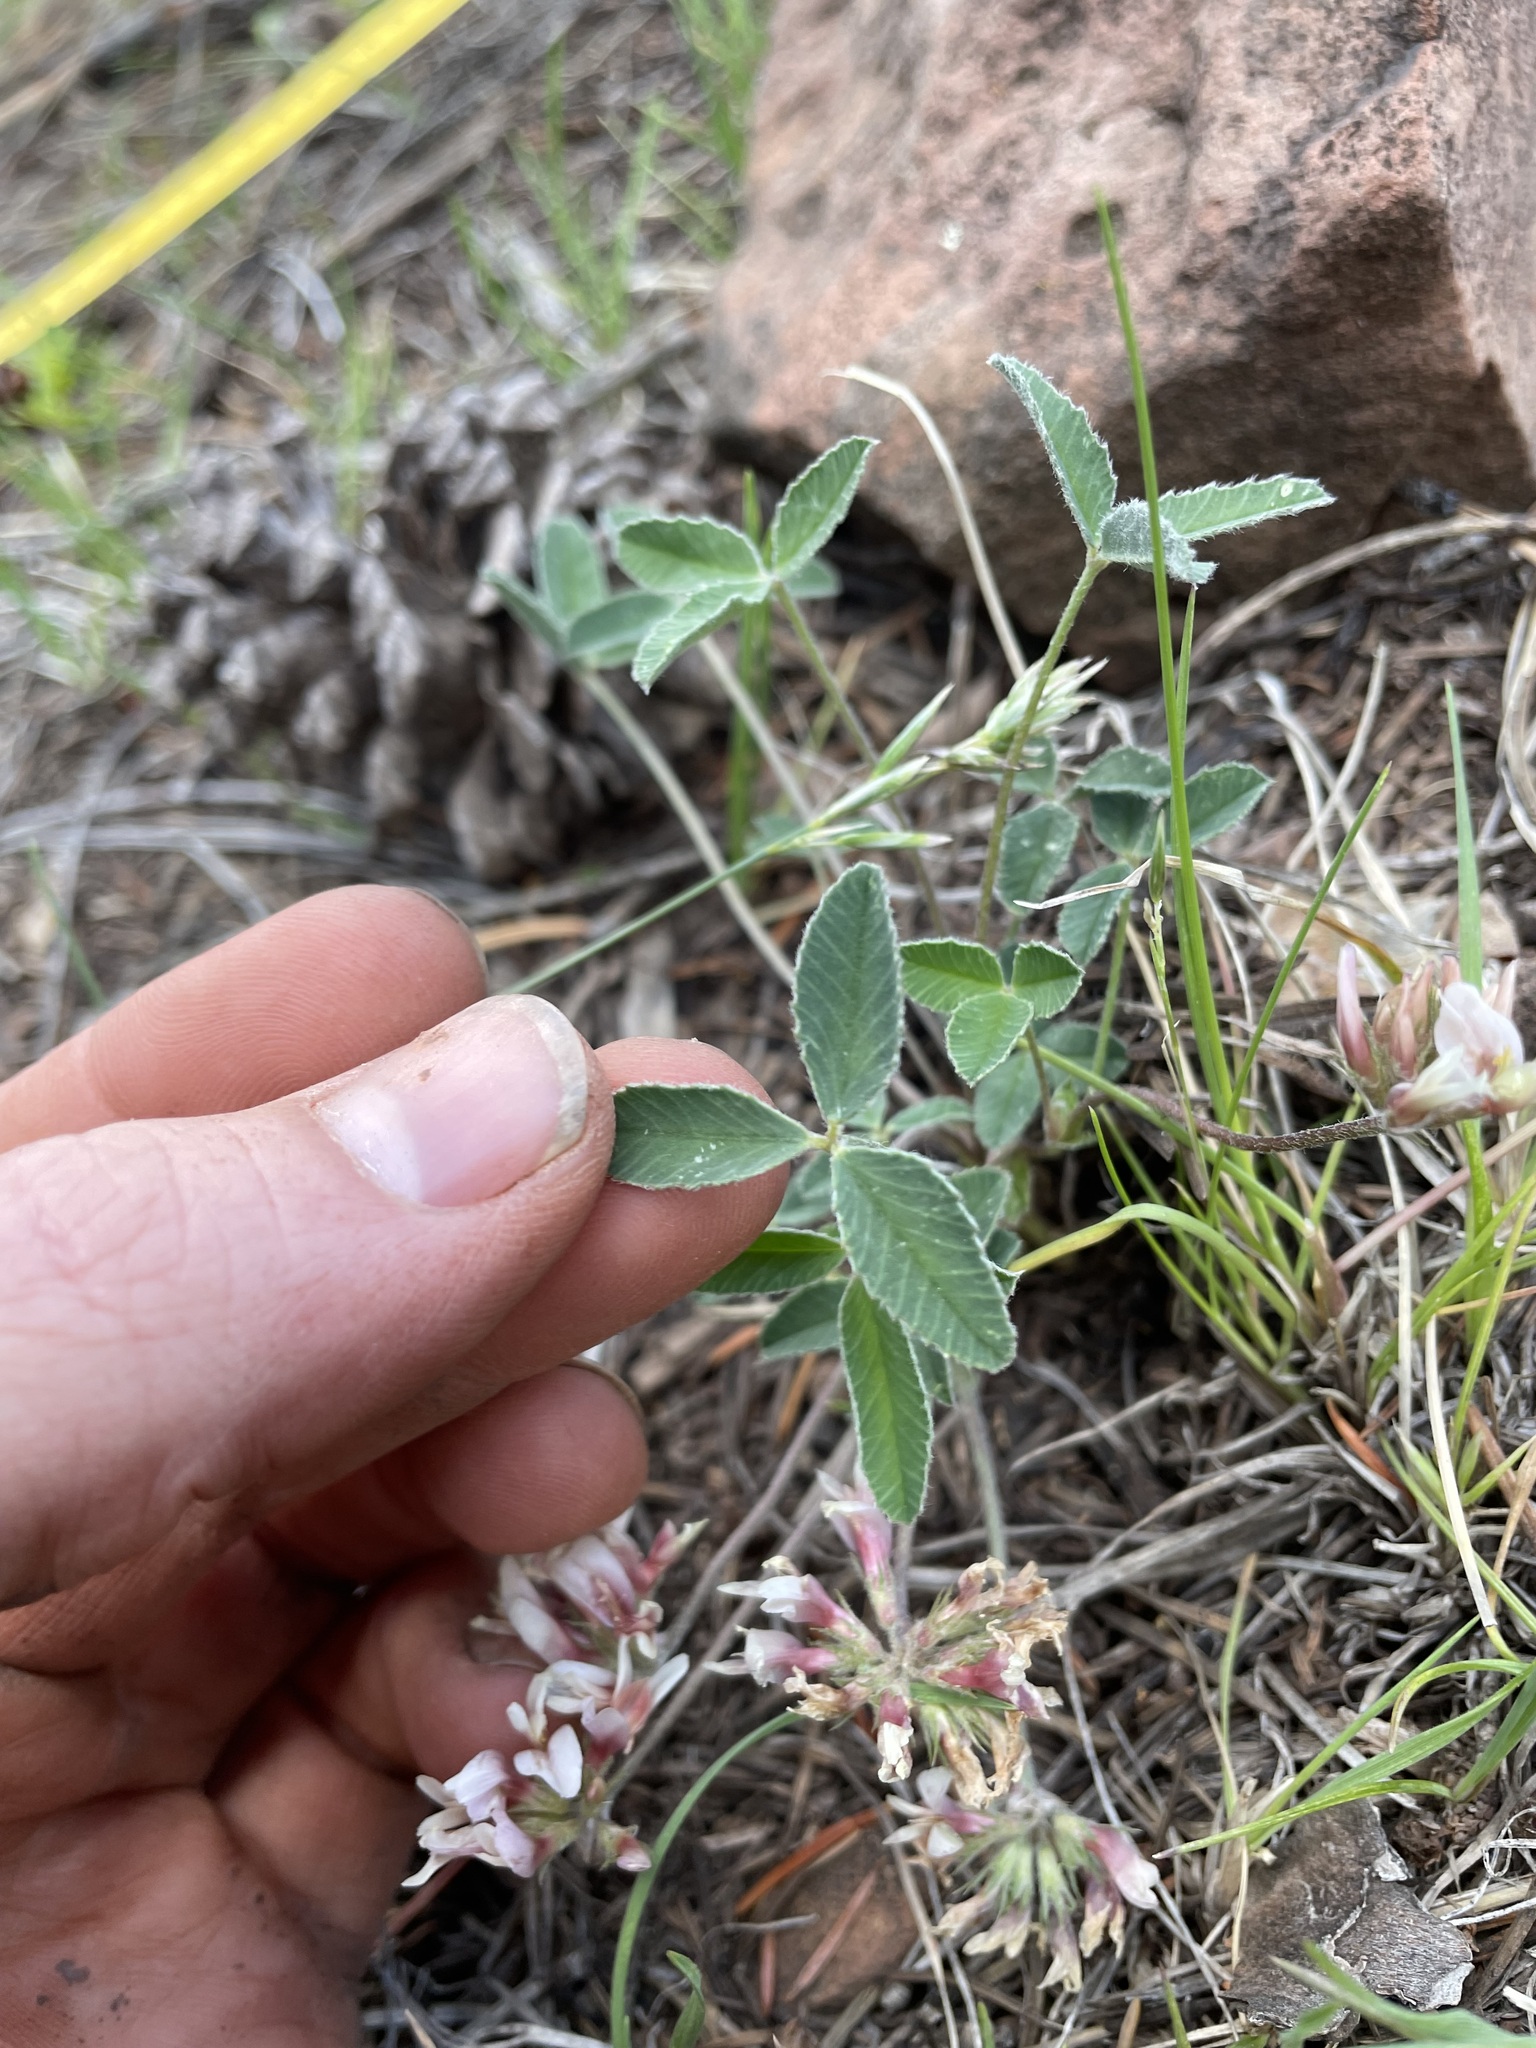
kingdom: Plantae
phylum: Tracheophyta
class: Magnoliopsida
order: Fabales
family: Fabaceae
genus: Trifolium
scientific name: Trifolium gymnocarpon
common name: Tufted clover
